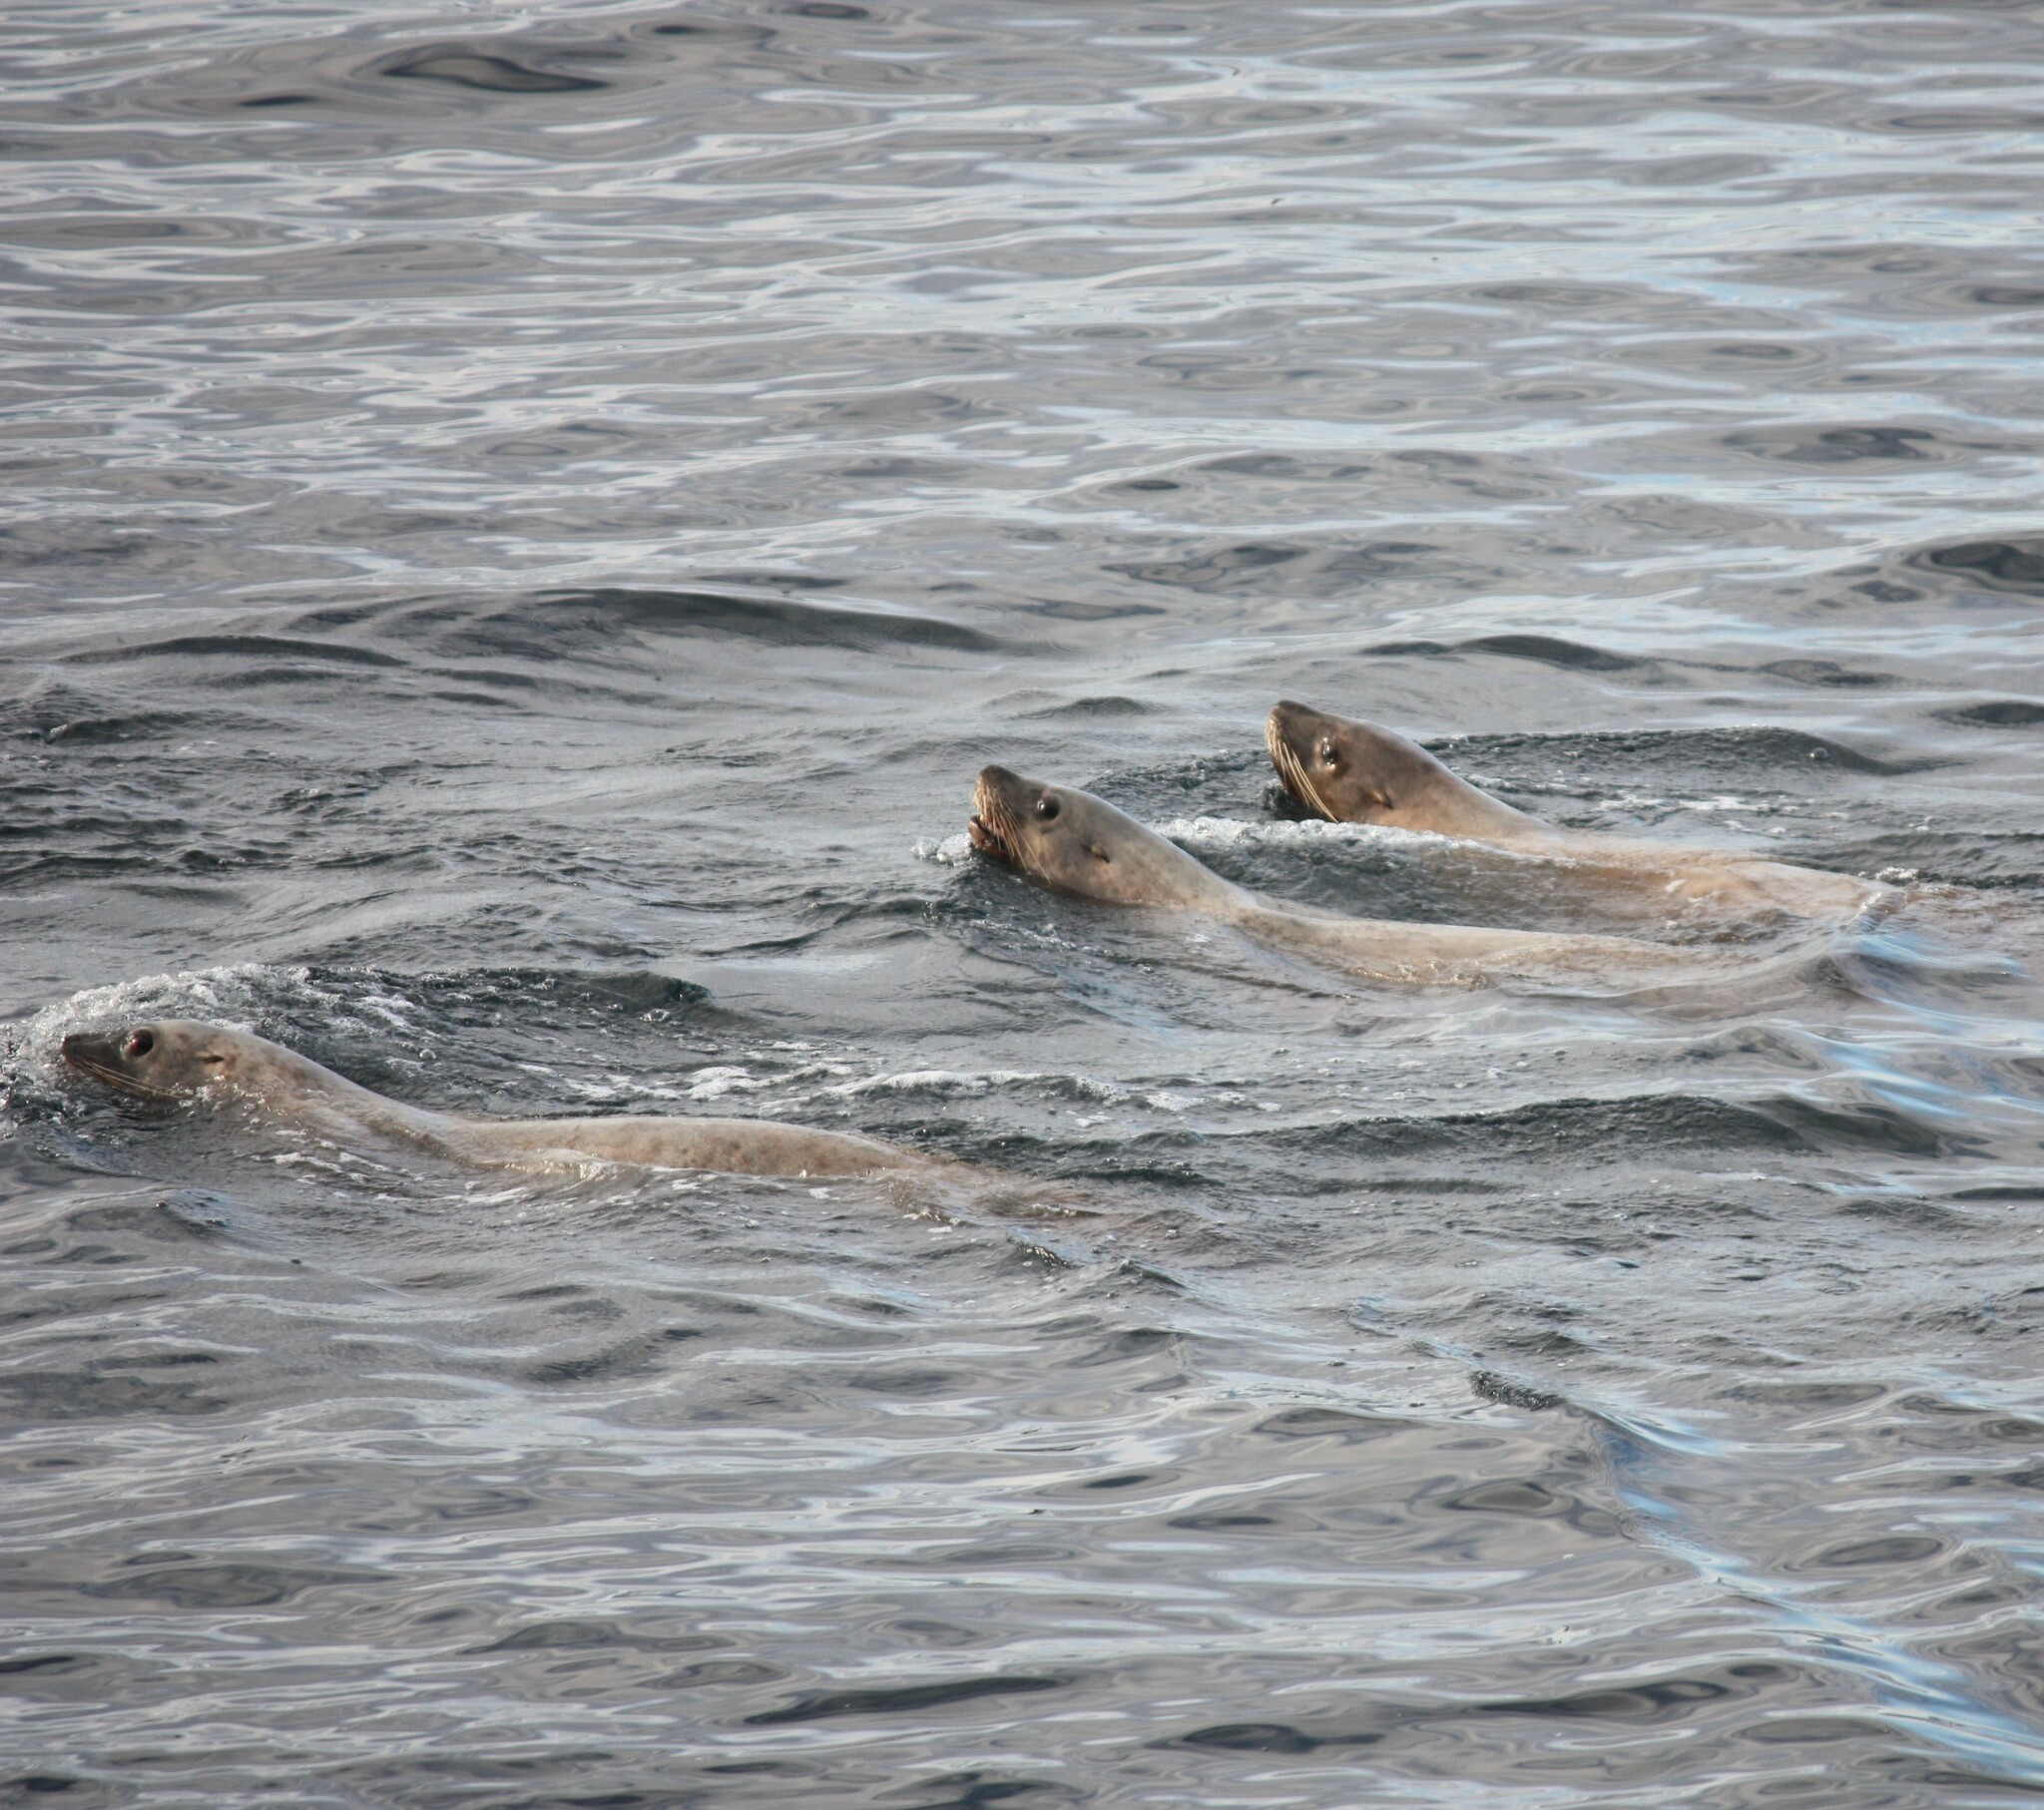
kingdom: Animalia
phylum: Chordata
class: Mammalia
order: Carnivora
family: Otariidae
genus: Eumetopias
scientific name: Eumetopias jubatus
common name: Steller sea lion
